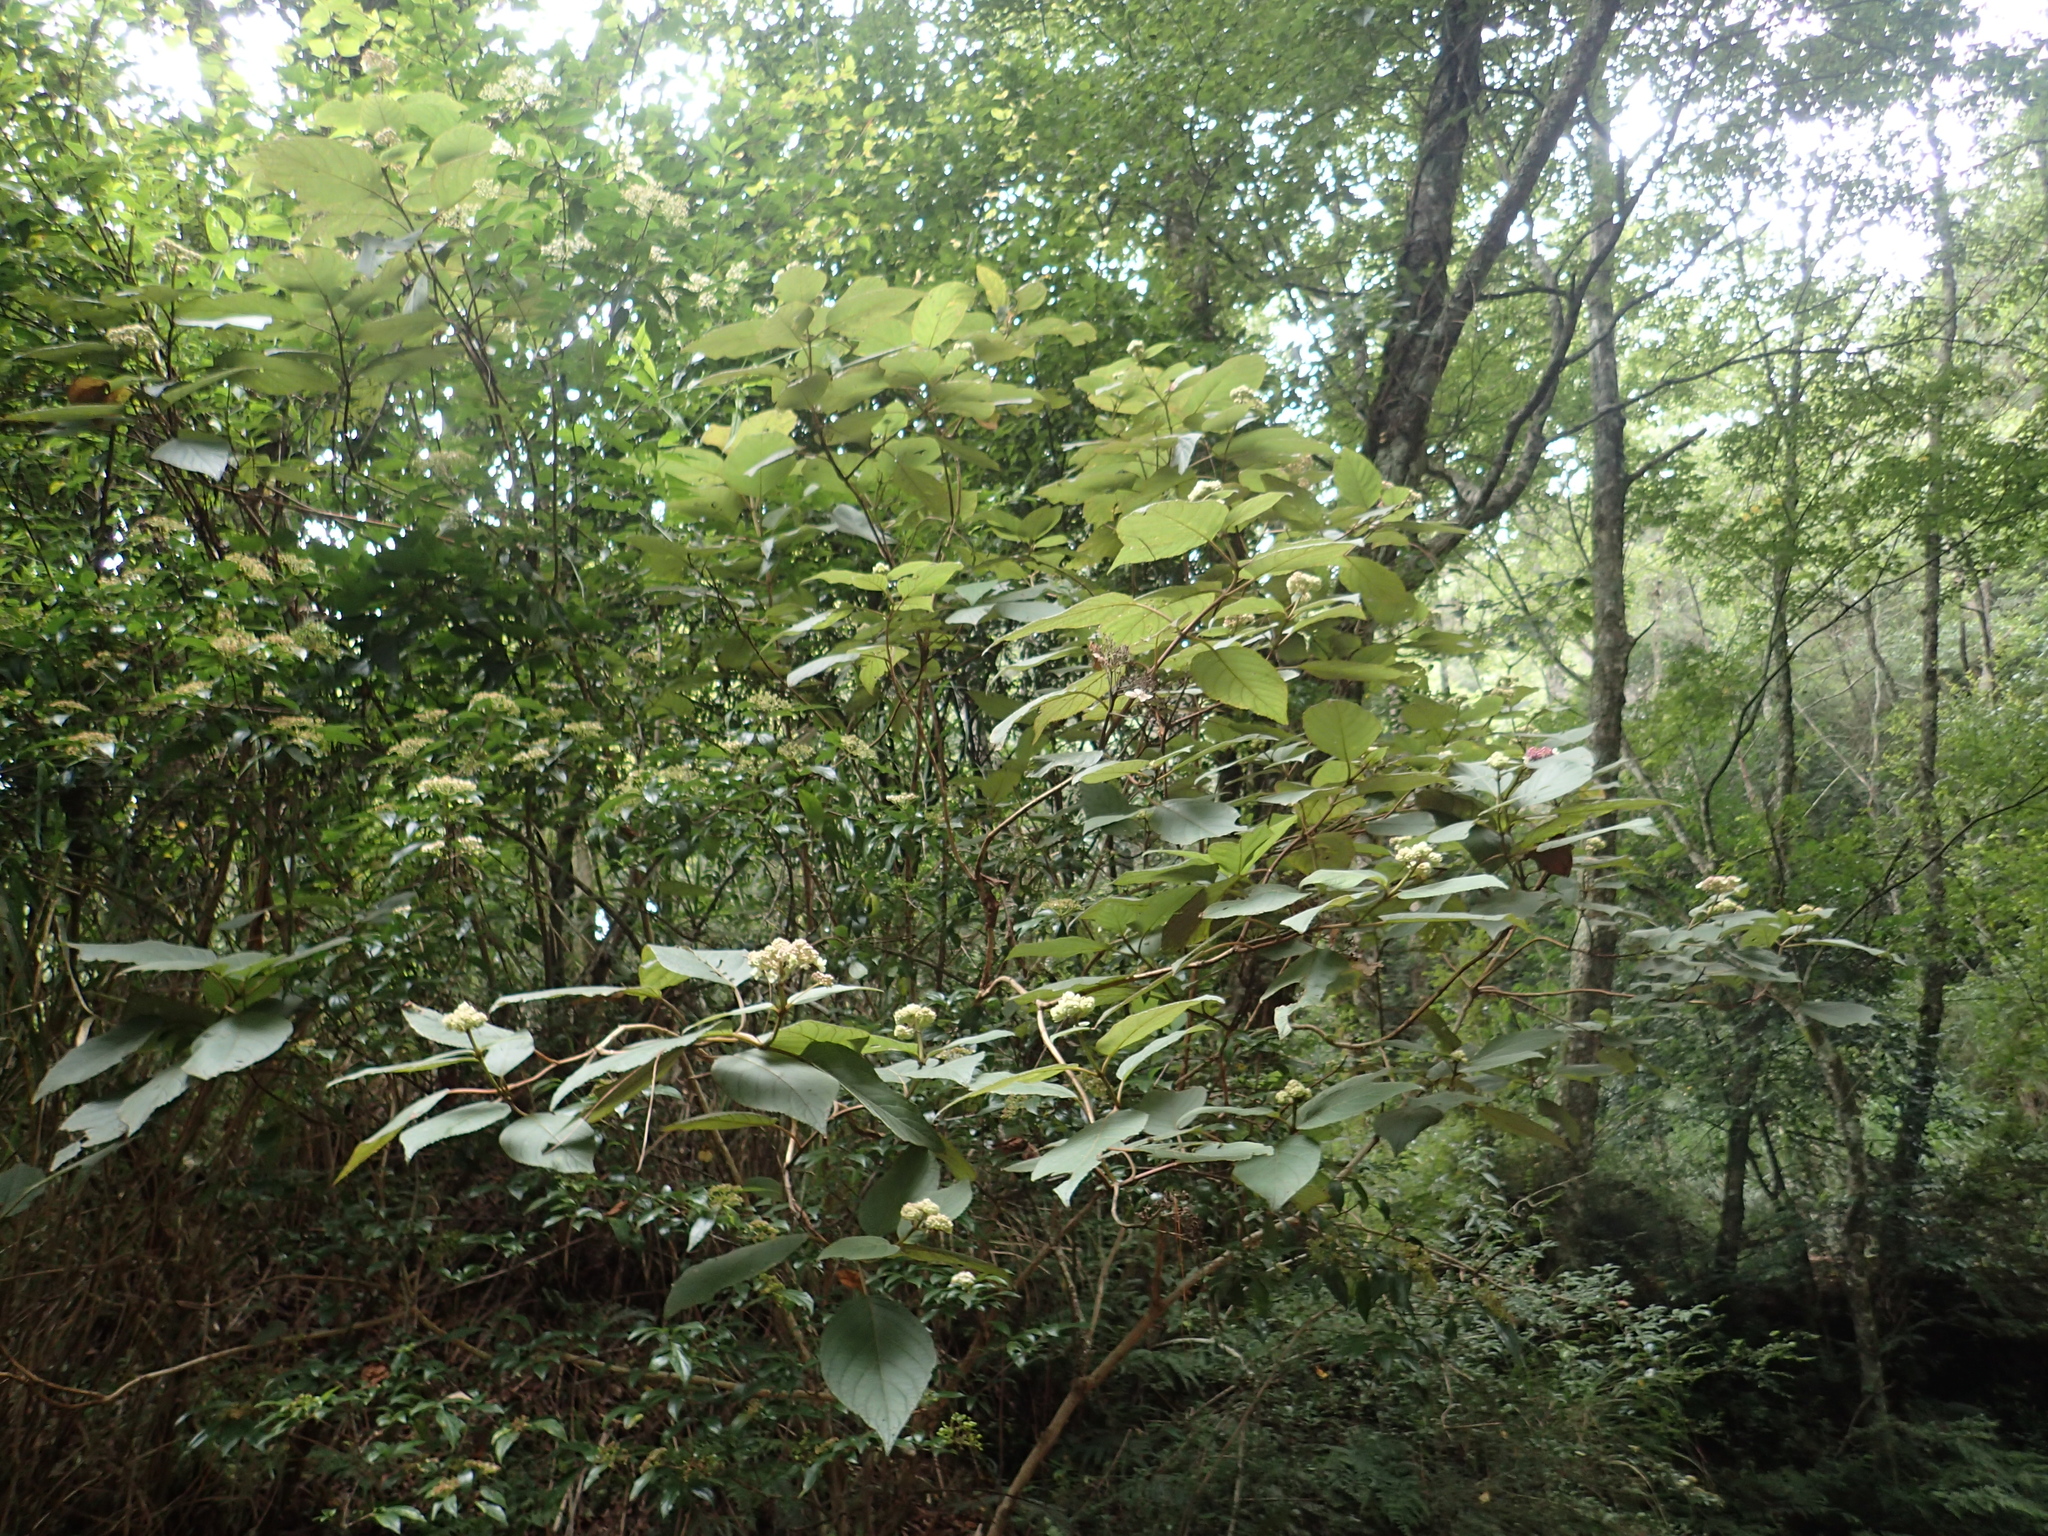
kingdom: Plantae
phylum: Tracheophyta
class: Magnoliopsida
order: Cornales
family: Hydrangeaceae
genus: Hydrangea
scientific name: Hydrangea aspera
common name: Rough-leaf hydrangea
